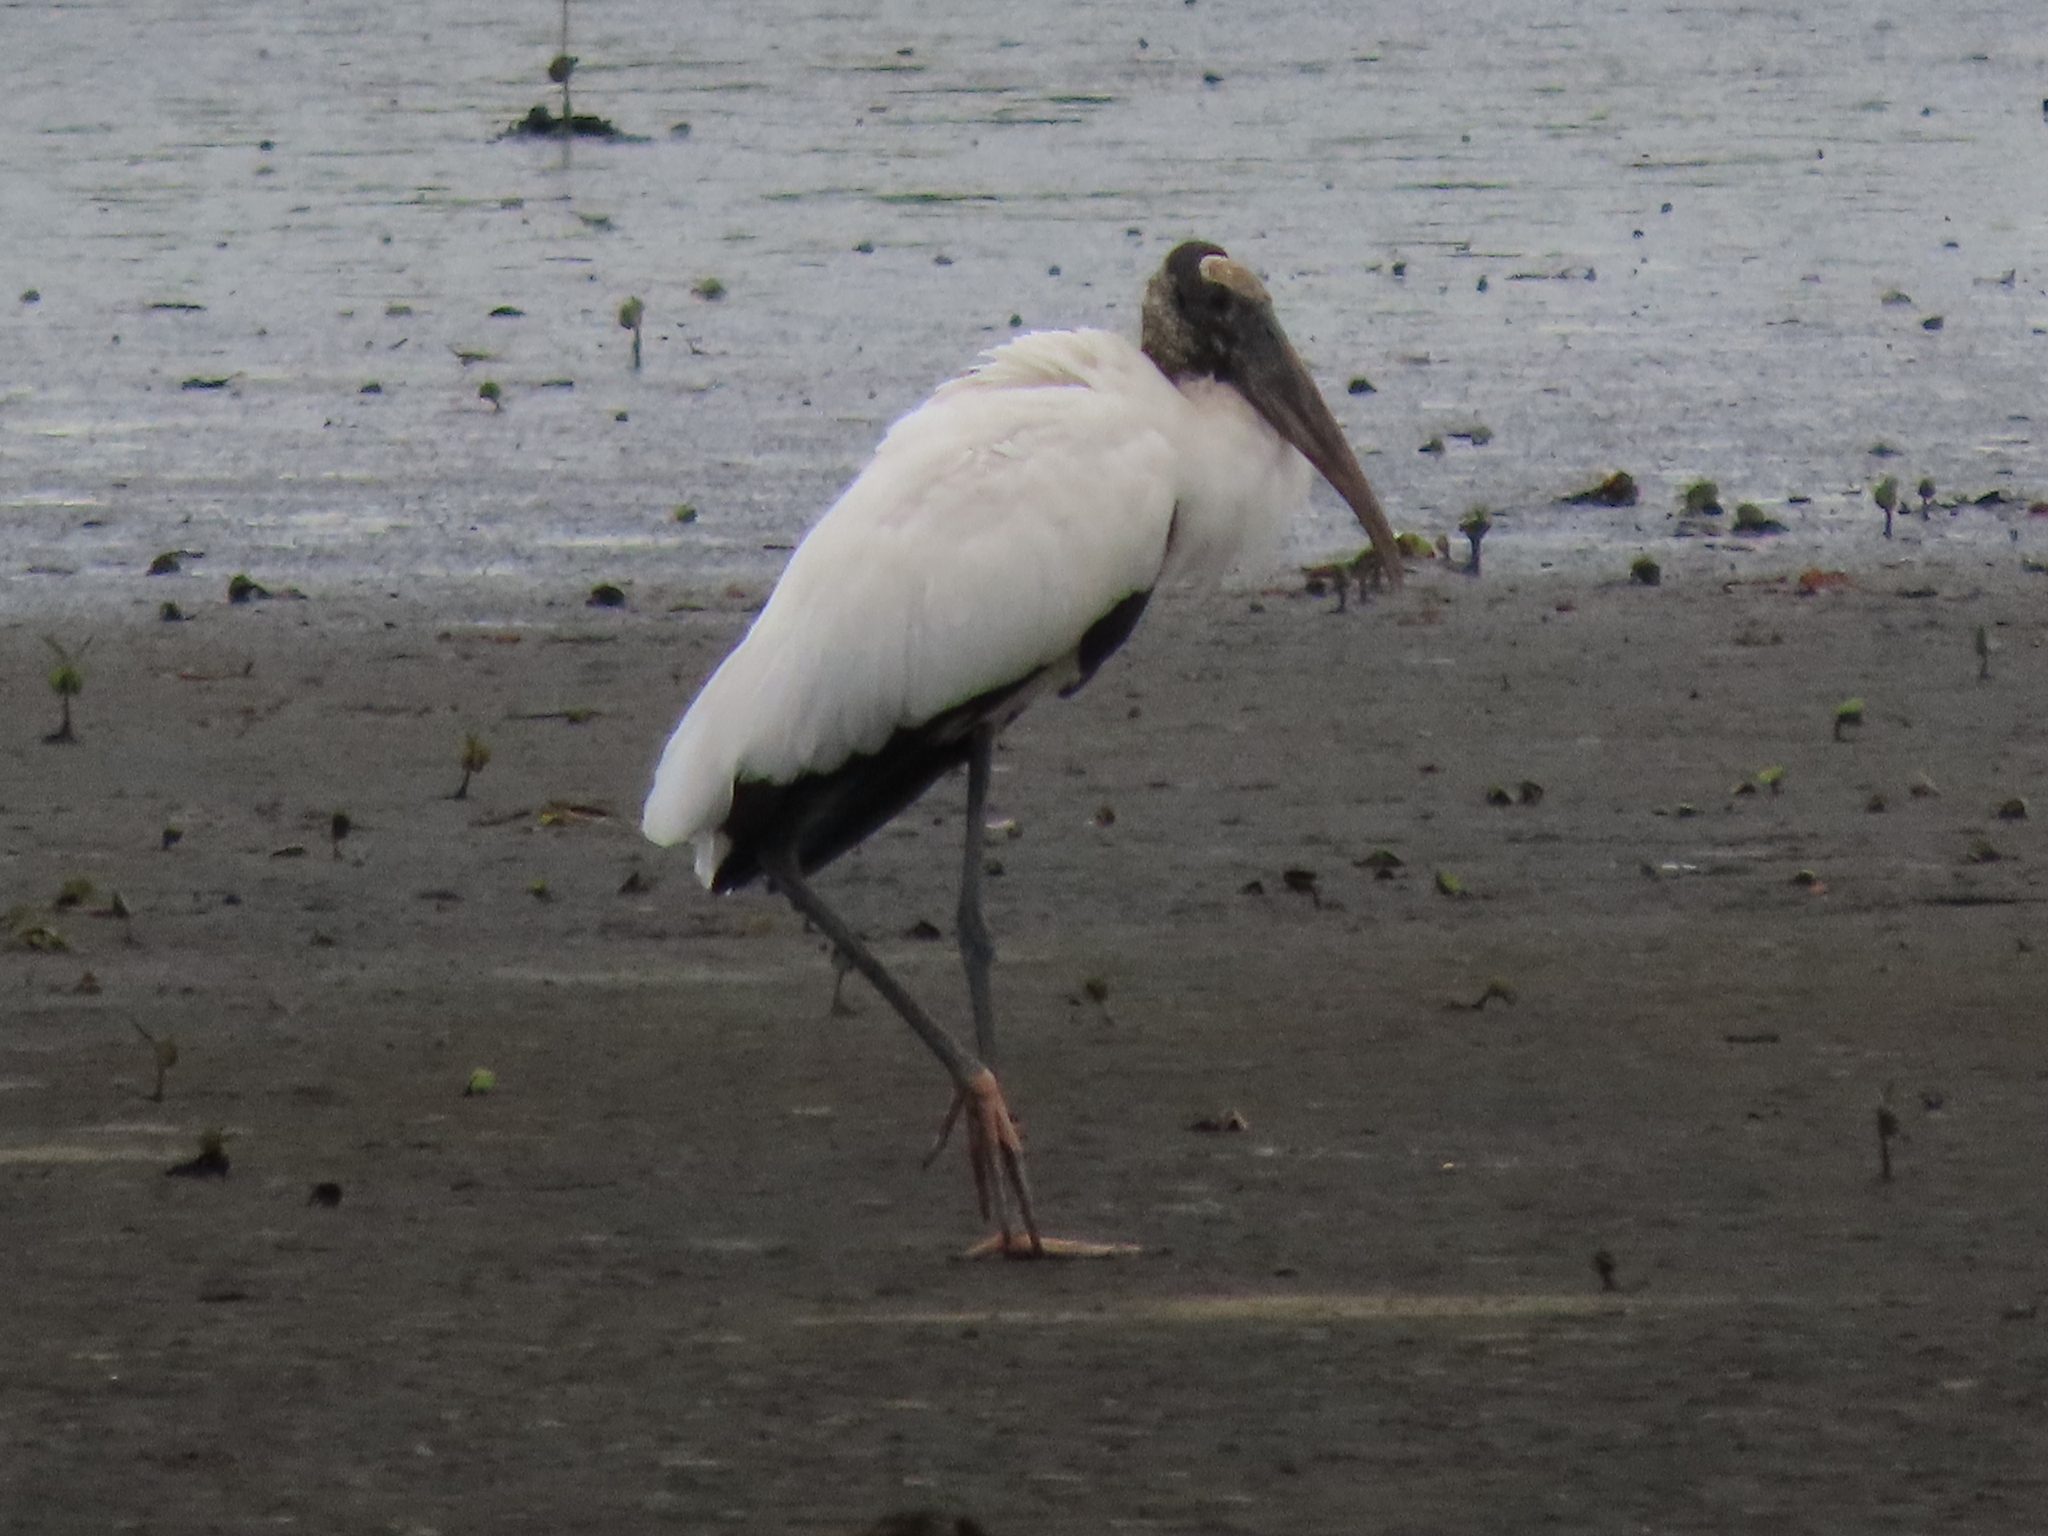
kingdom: Animalia
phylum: Chordata
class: Aves
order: Ciconiiformes
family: Ciconiidae
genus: Mycteria
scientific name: Mycteria americana
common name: Wood stork
